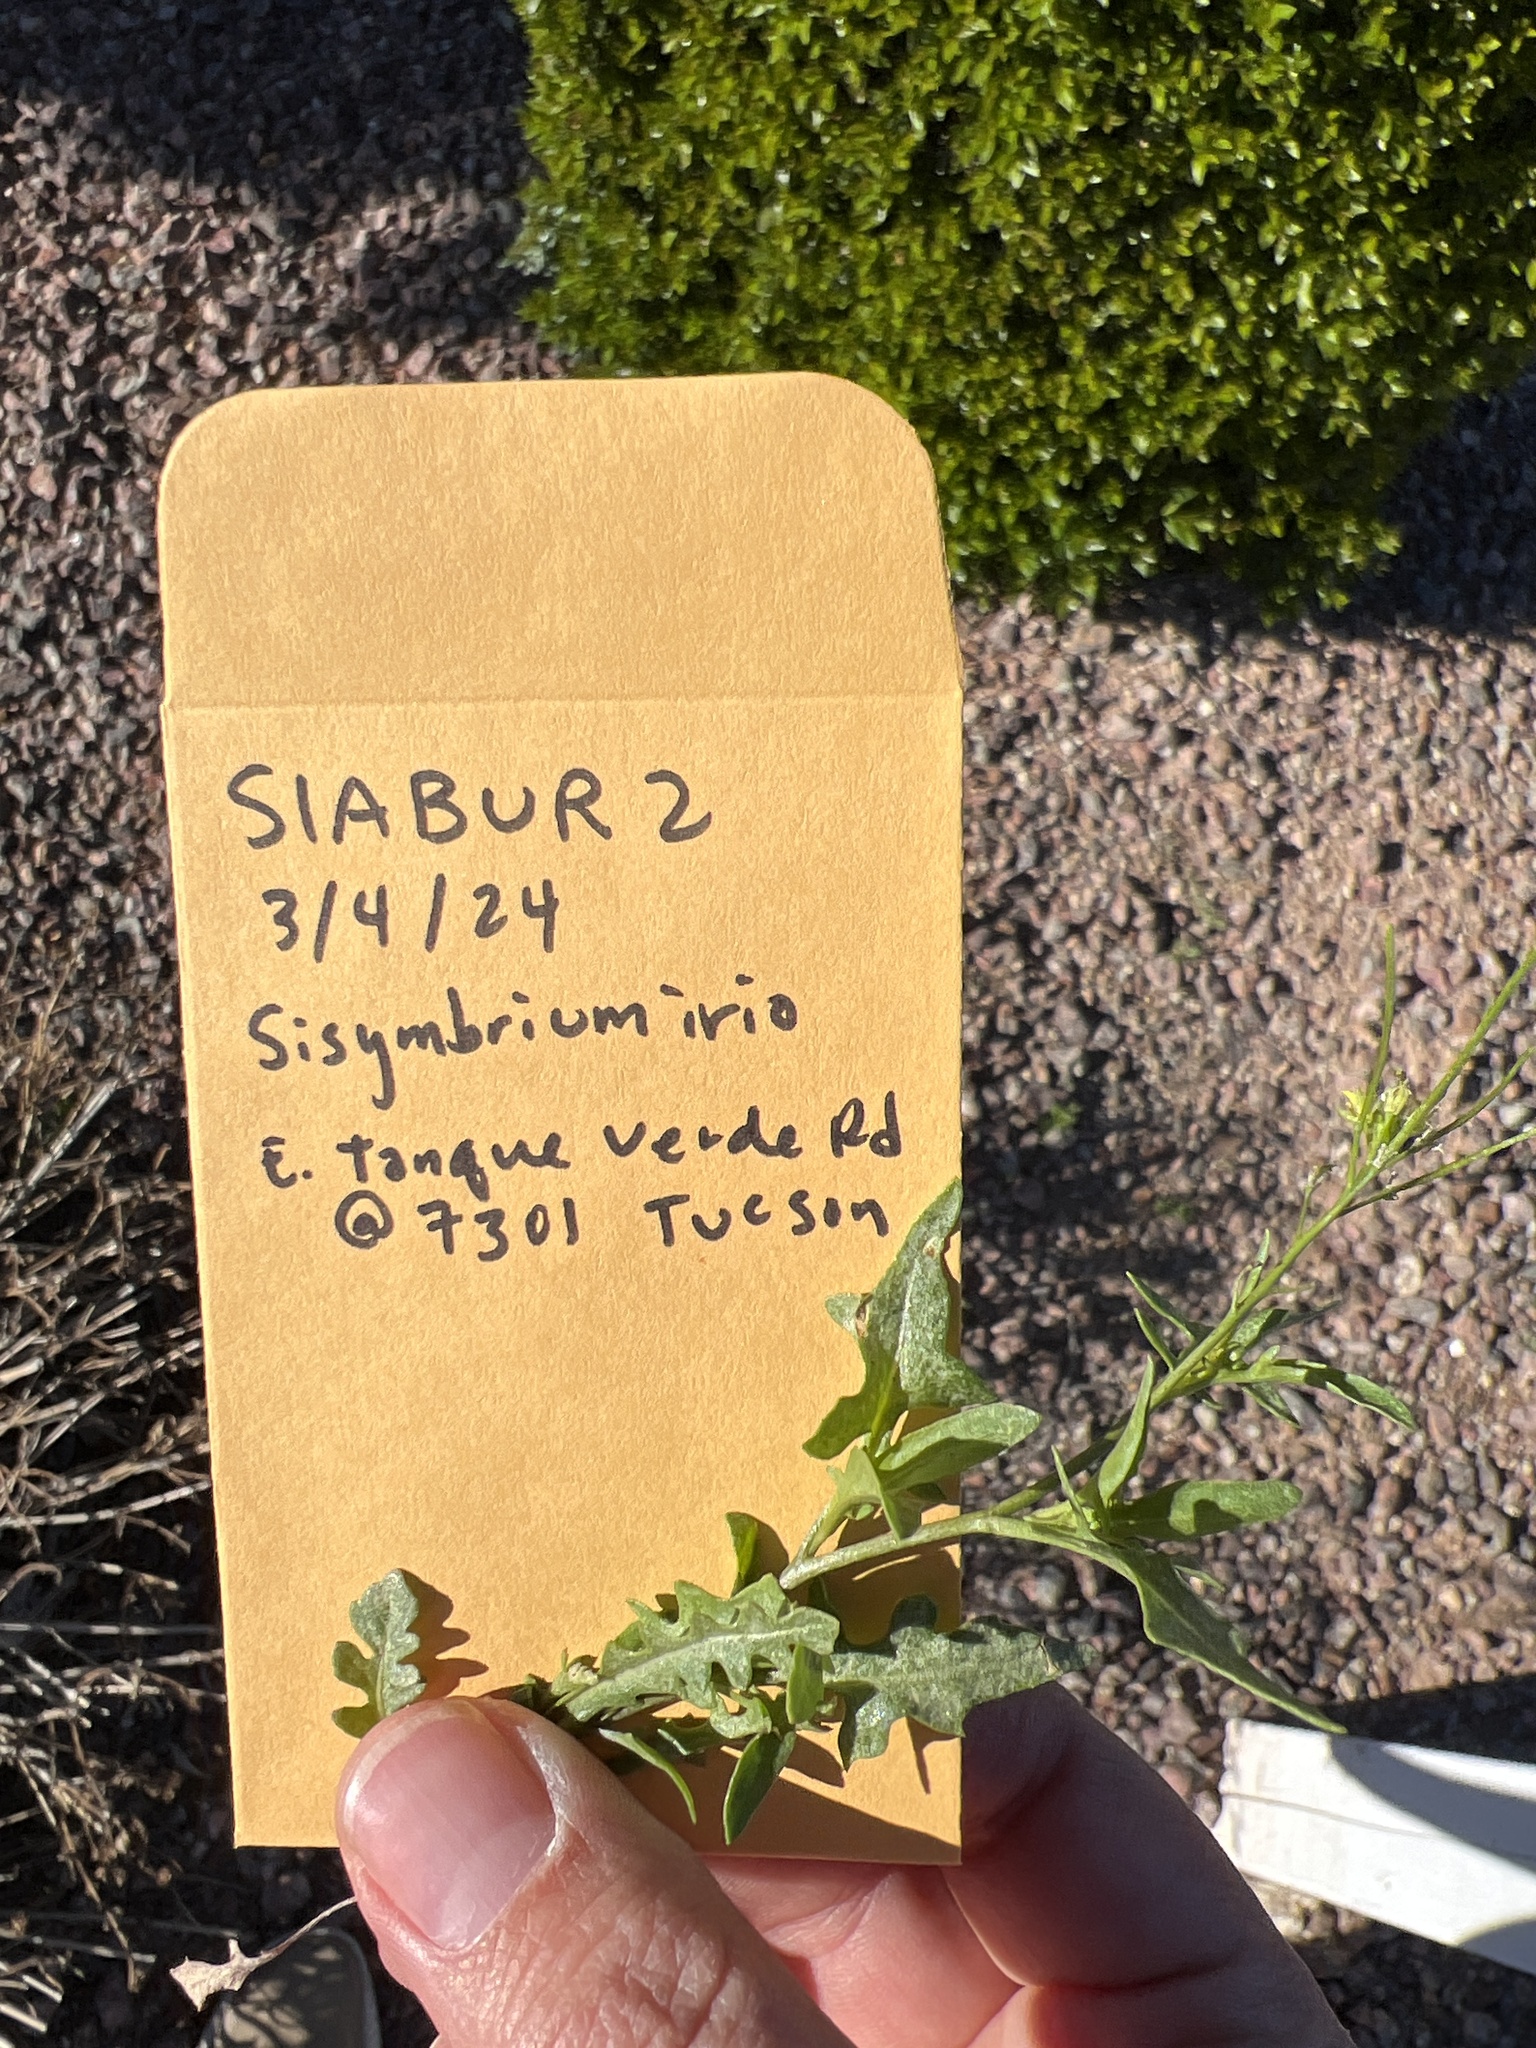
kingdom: Plantae
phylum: Tracheophyta
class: Magnoliopsida
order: Brassicales
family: Brassicaceae
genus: Sisymbrium
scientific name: Sisymbrium irio
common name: London rocket
